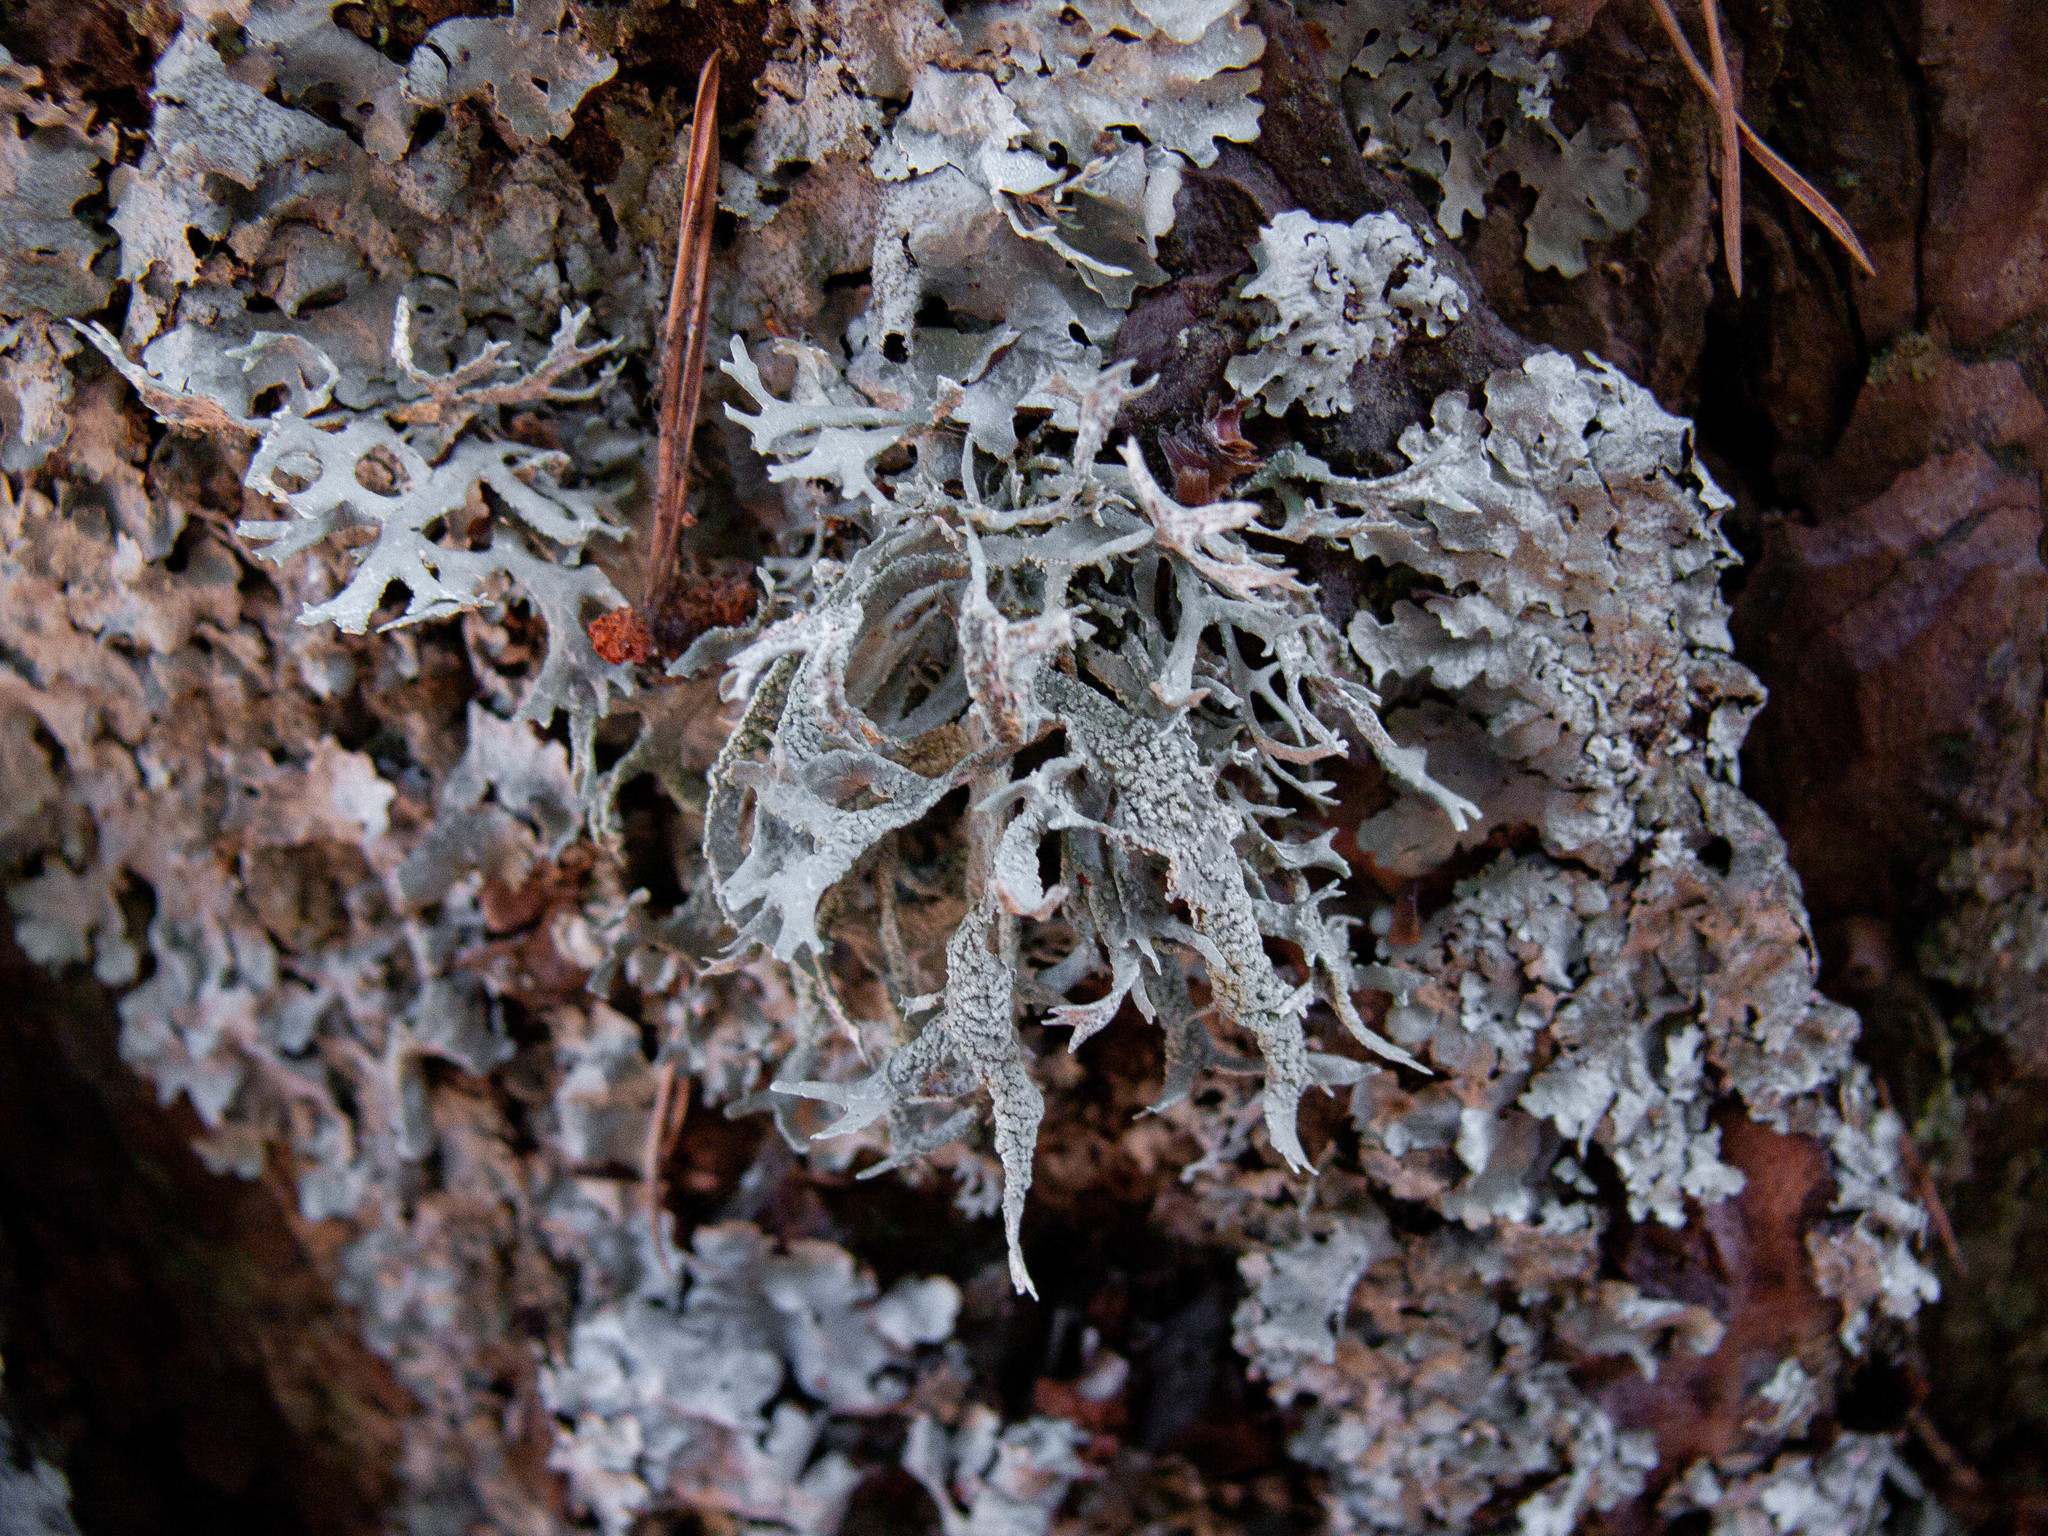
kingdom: Fungi
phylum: Ascomycota
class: Lecanoromycetes
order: Lecanorales
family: Parmeliaceae
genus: Evernia
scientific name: Evernia prunastri
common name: Oak moss
